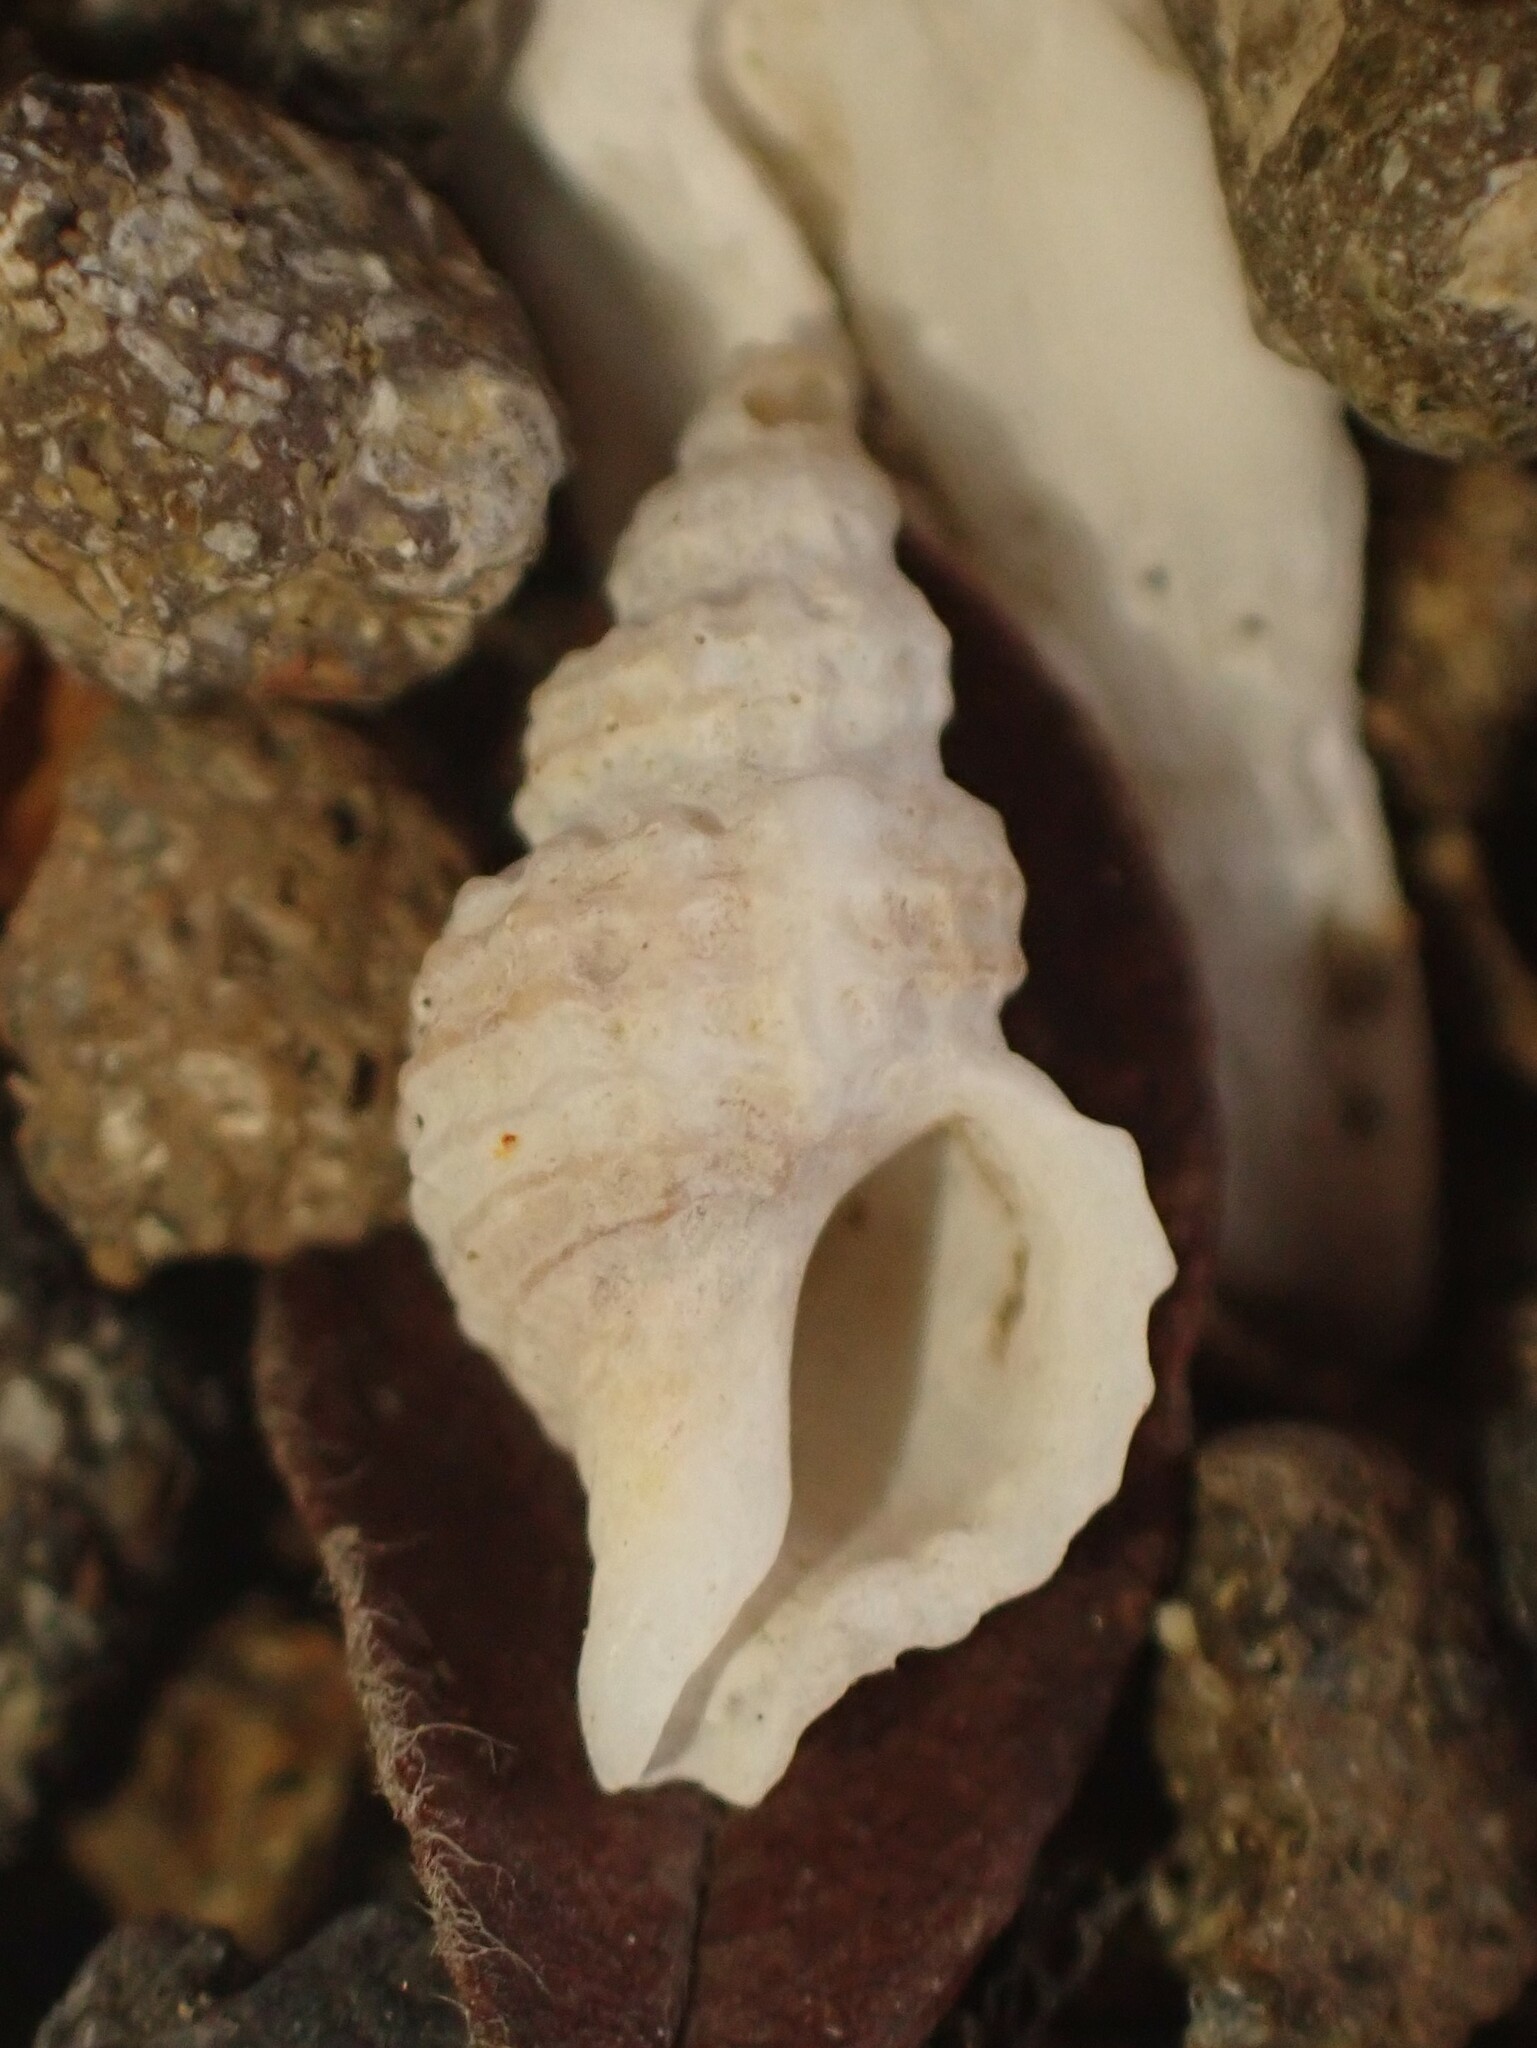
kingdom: Animalia
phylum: Mollusca
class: Gastropoda
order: Neogastropoda
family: Muricidae
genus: Xymenella
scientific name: Xymenella pusilla
